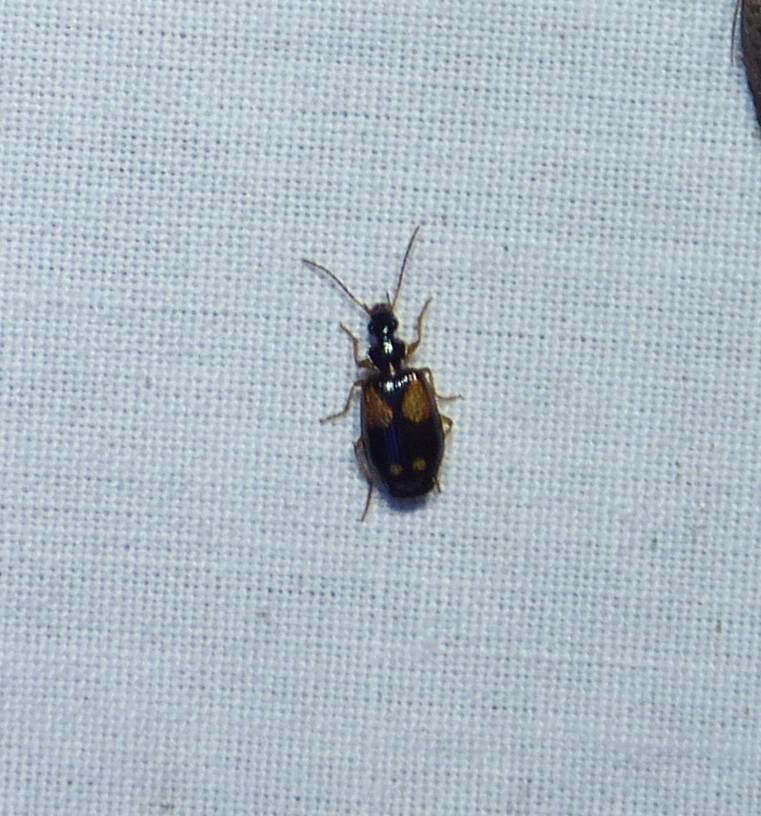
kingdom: Animalia
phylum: Arthropoda
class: Insecta
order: Coleoptera
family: Carabidae
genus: Lebia
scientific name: Lebia ornata
